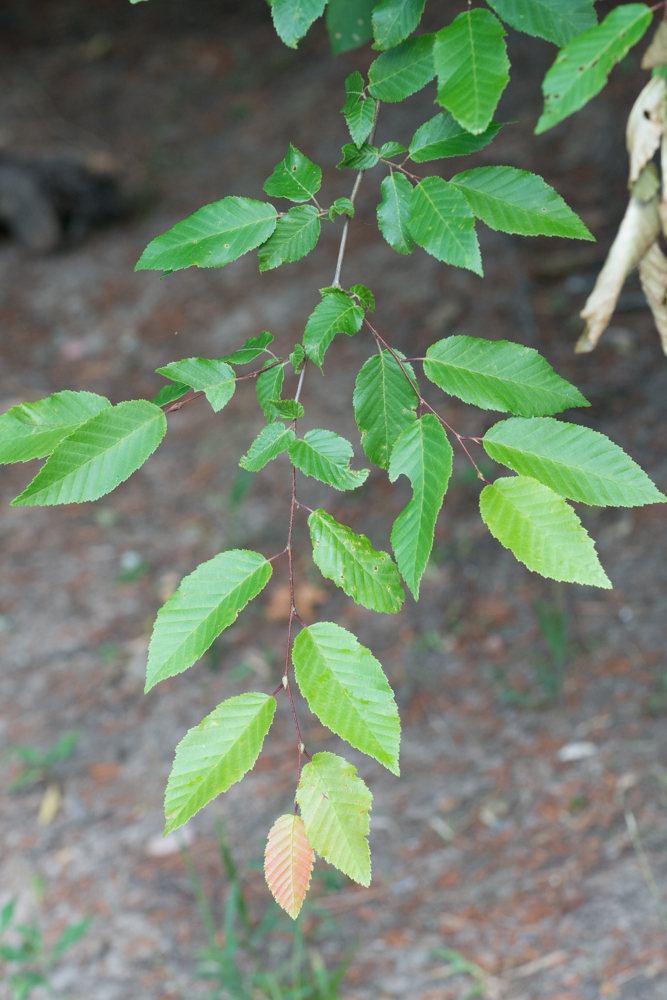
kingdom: Plantae
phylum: Tracheophyta
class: Magnoliopsida
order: Fagales
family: Betulaceae
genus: Carpinus
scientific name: Carpinus caroliniana
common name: American hornbeam
